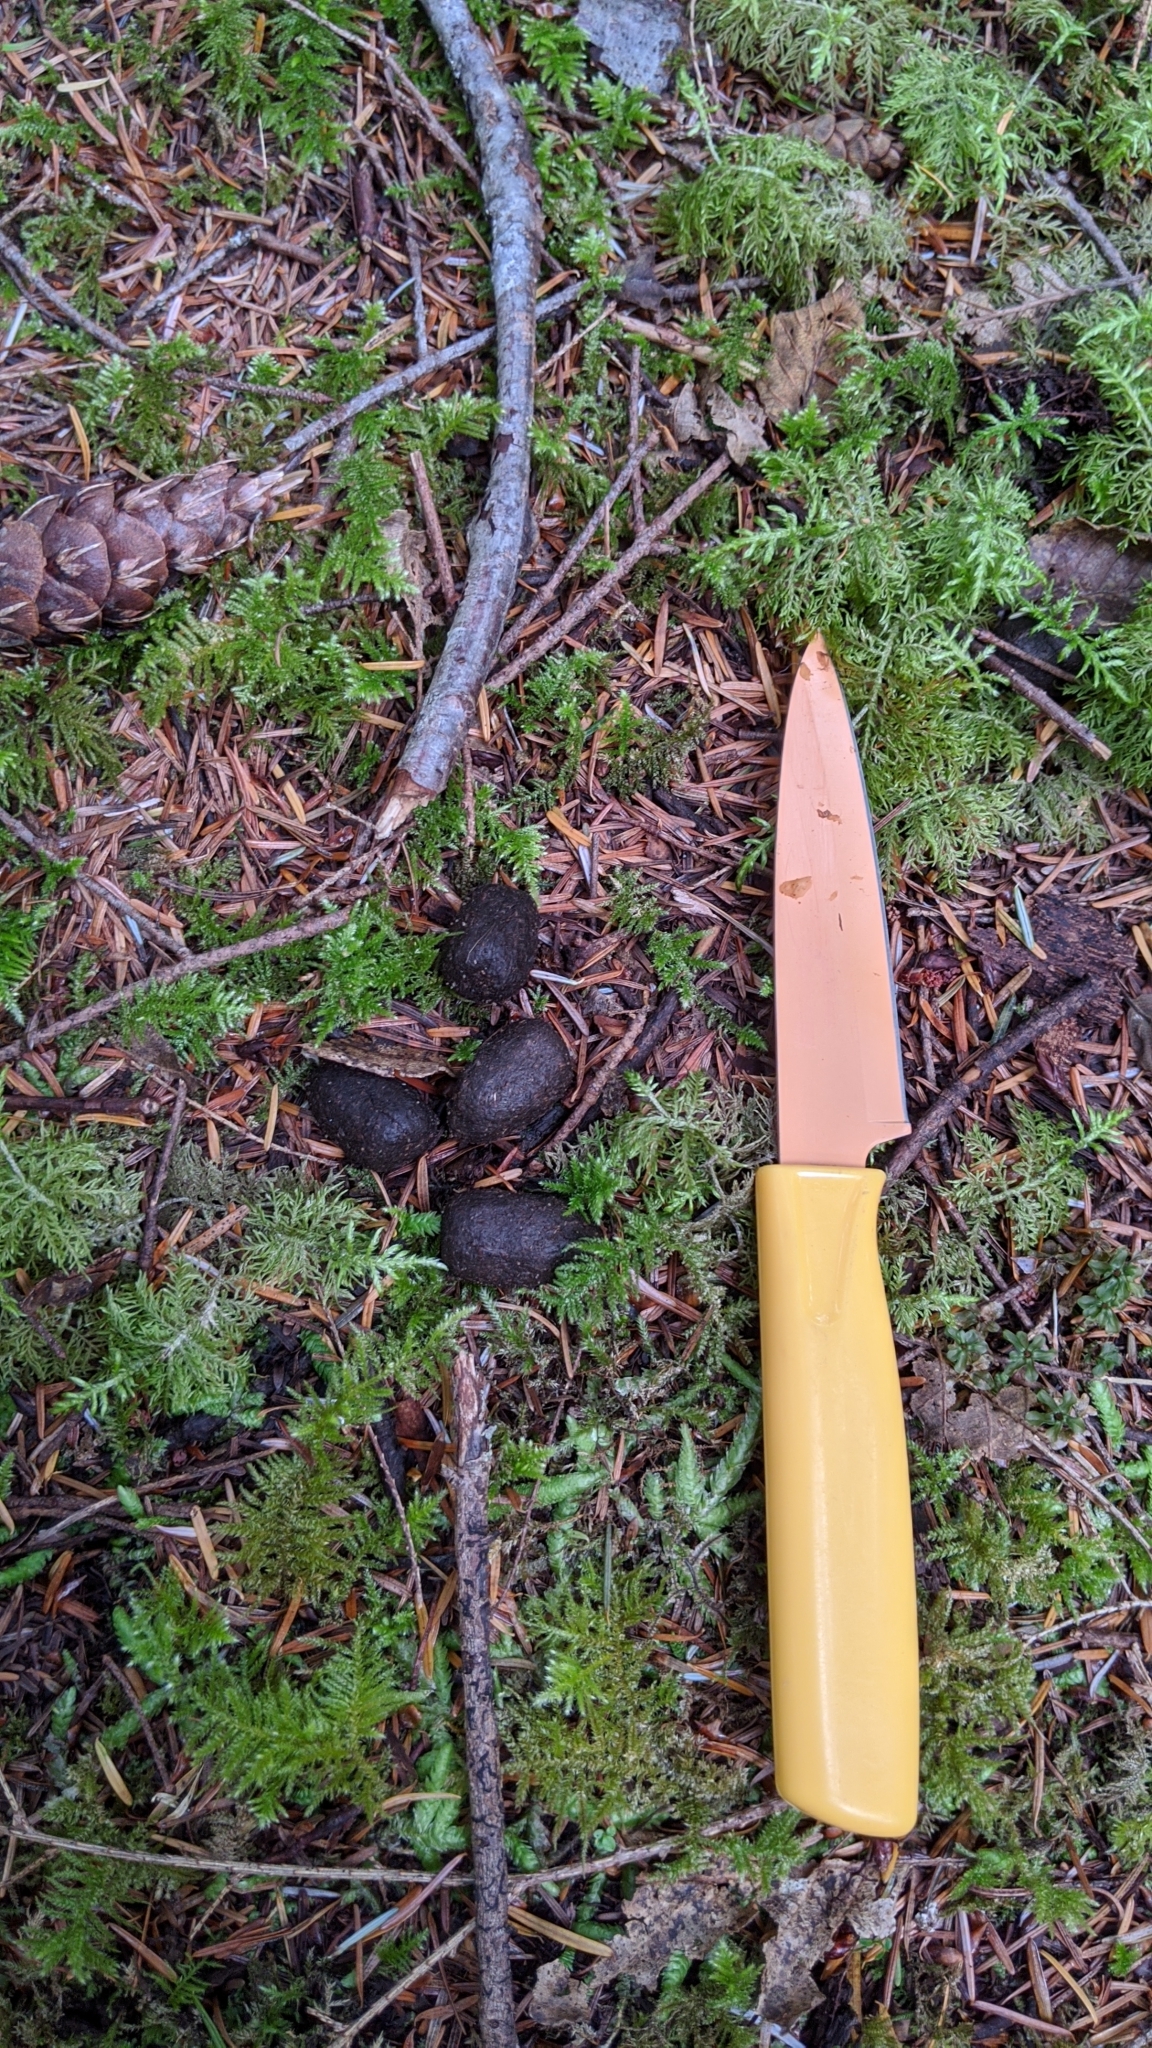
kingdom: Animalia
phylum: Chordata
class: Mammalia
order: Artiodactyla
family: Cervidae
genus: Cervus
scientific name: Cervus elaphus
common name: Red deer
